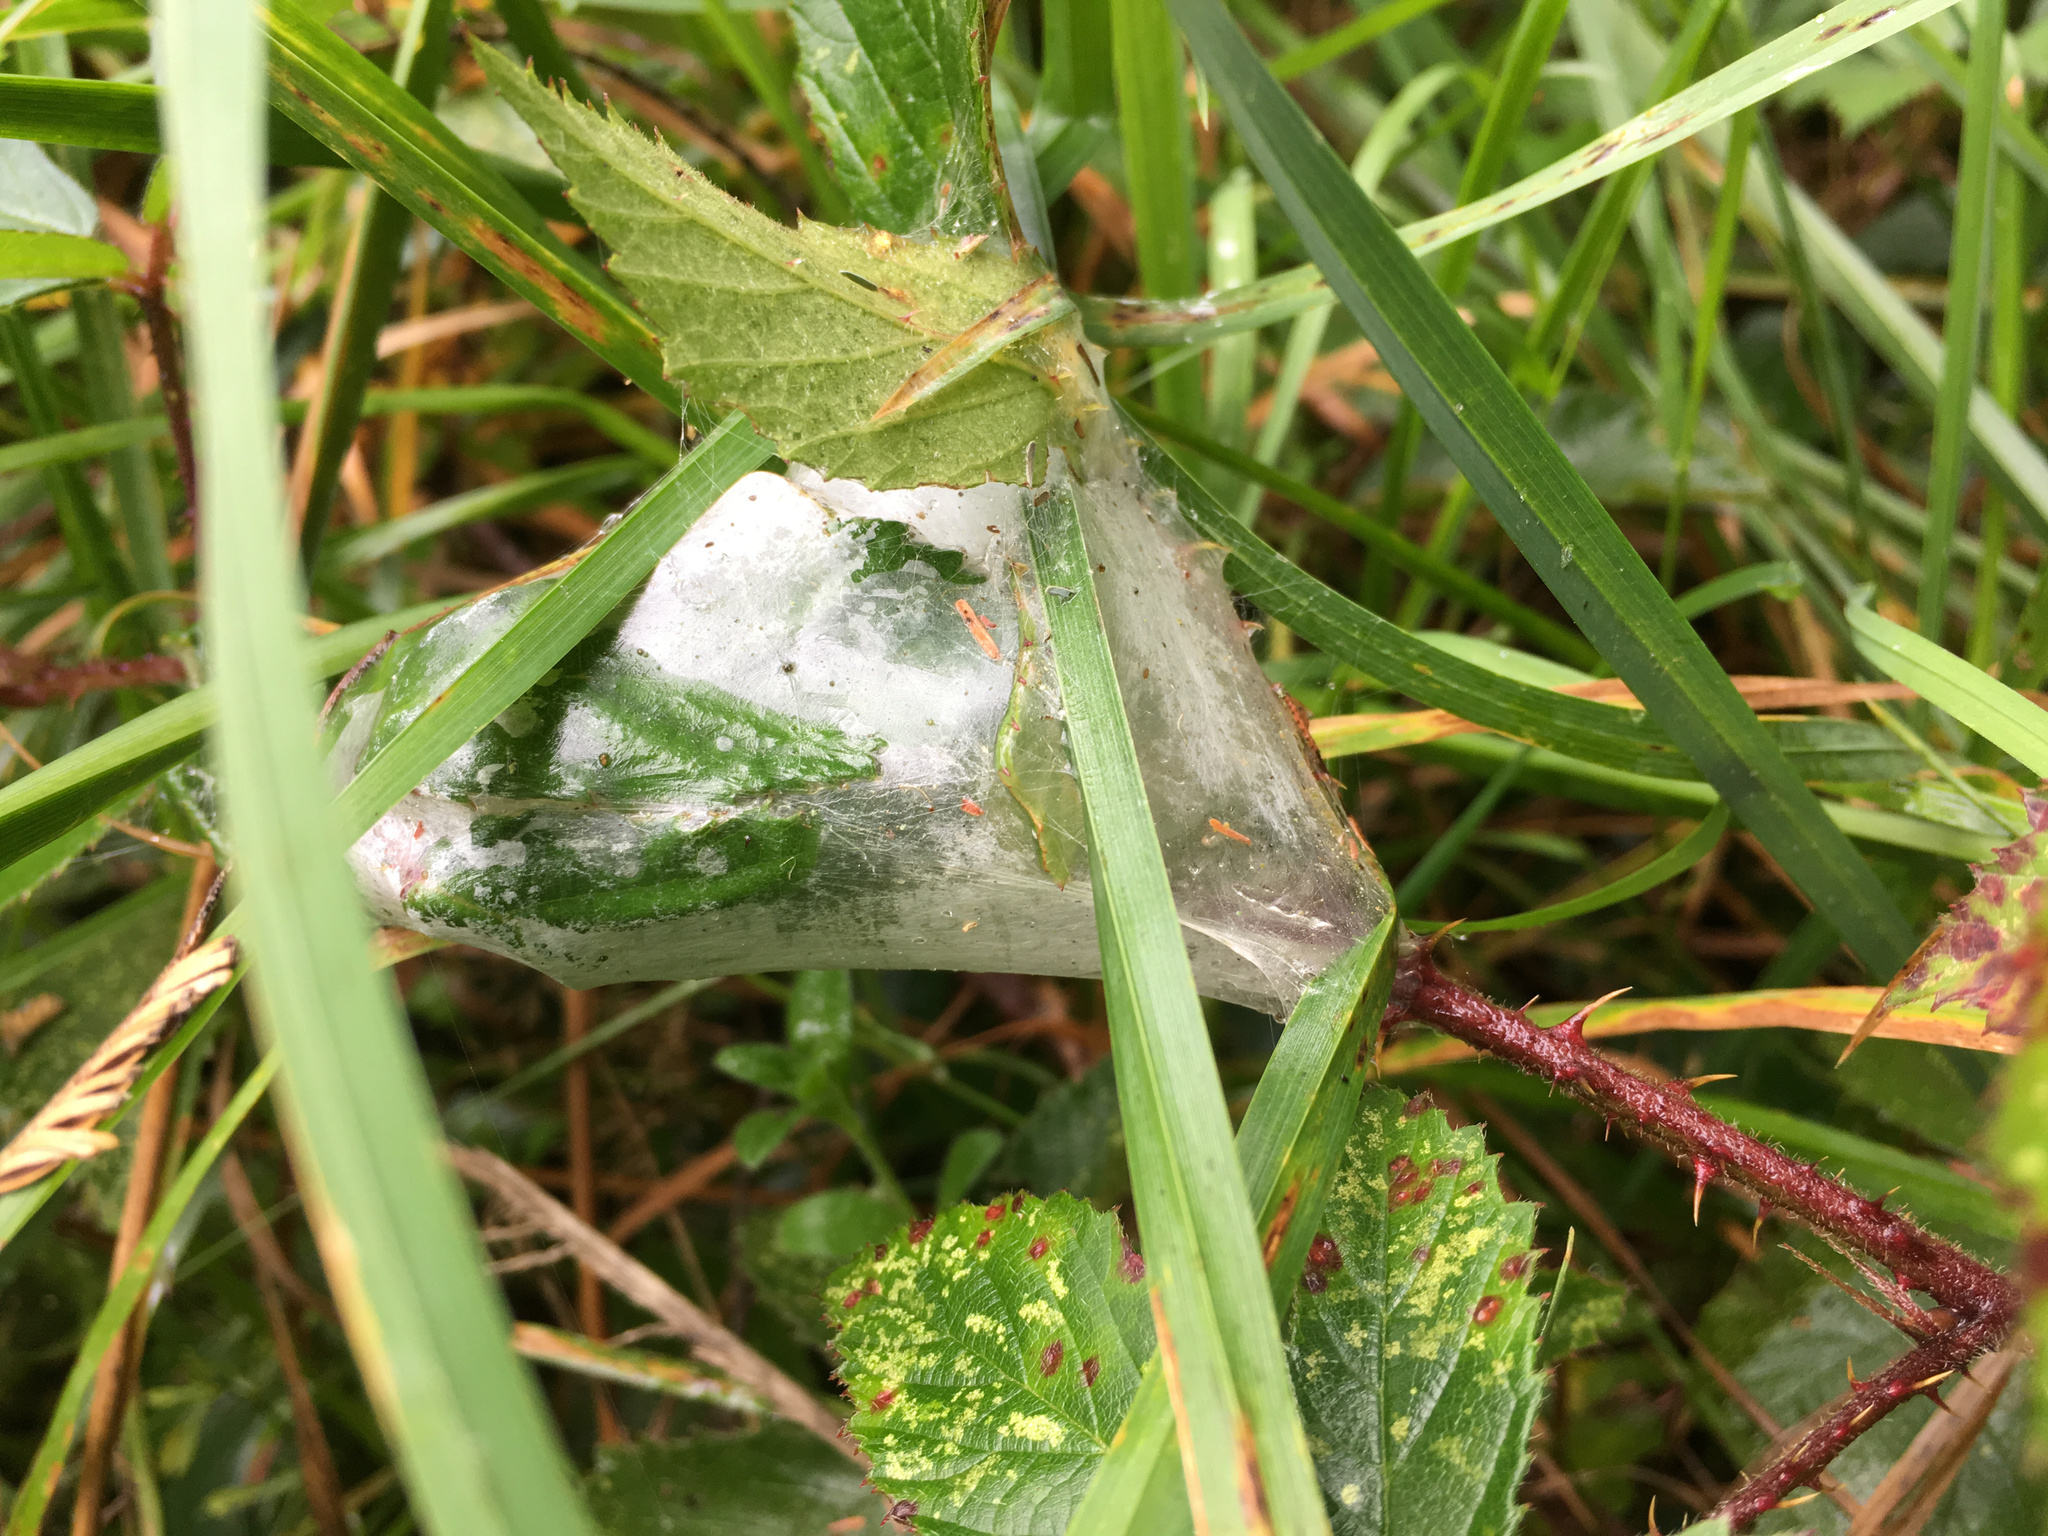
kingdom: Animalia
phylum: Arthropoda
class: Arachnida
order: Araneae
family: Pisauridae
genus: Dolomedes
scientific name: Dolomedes minor
